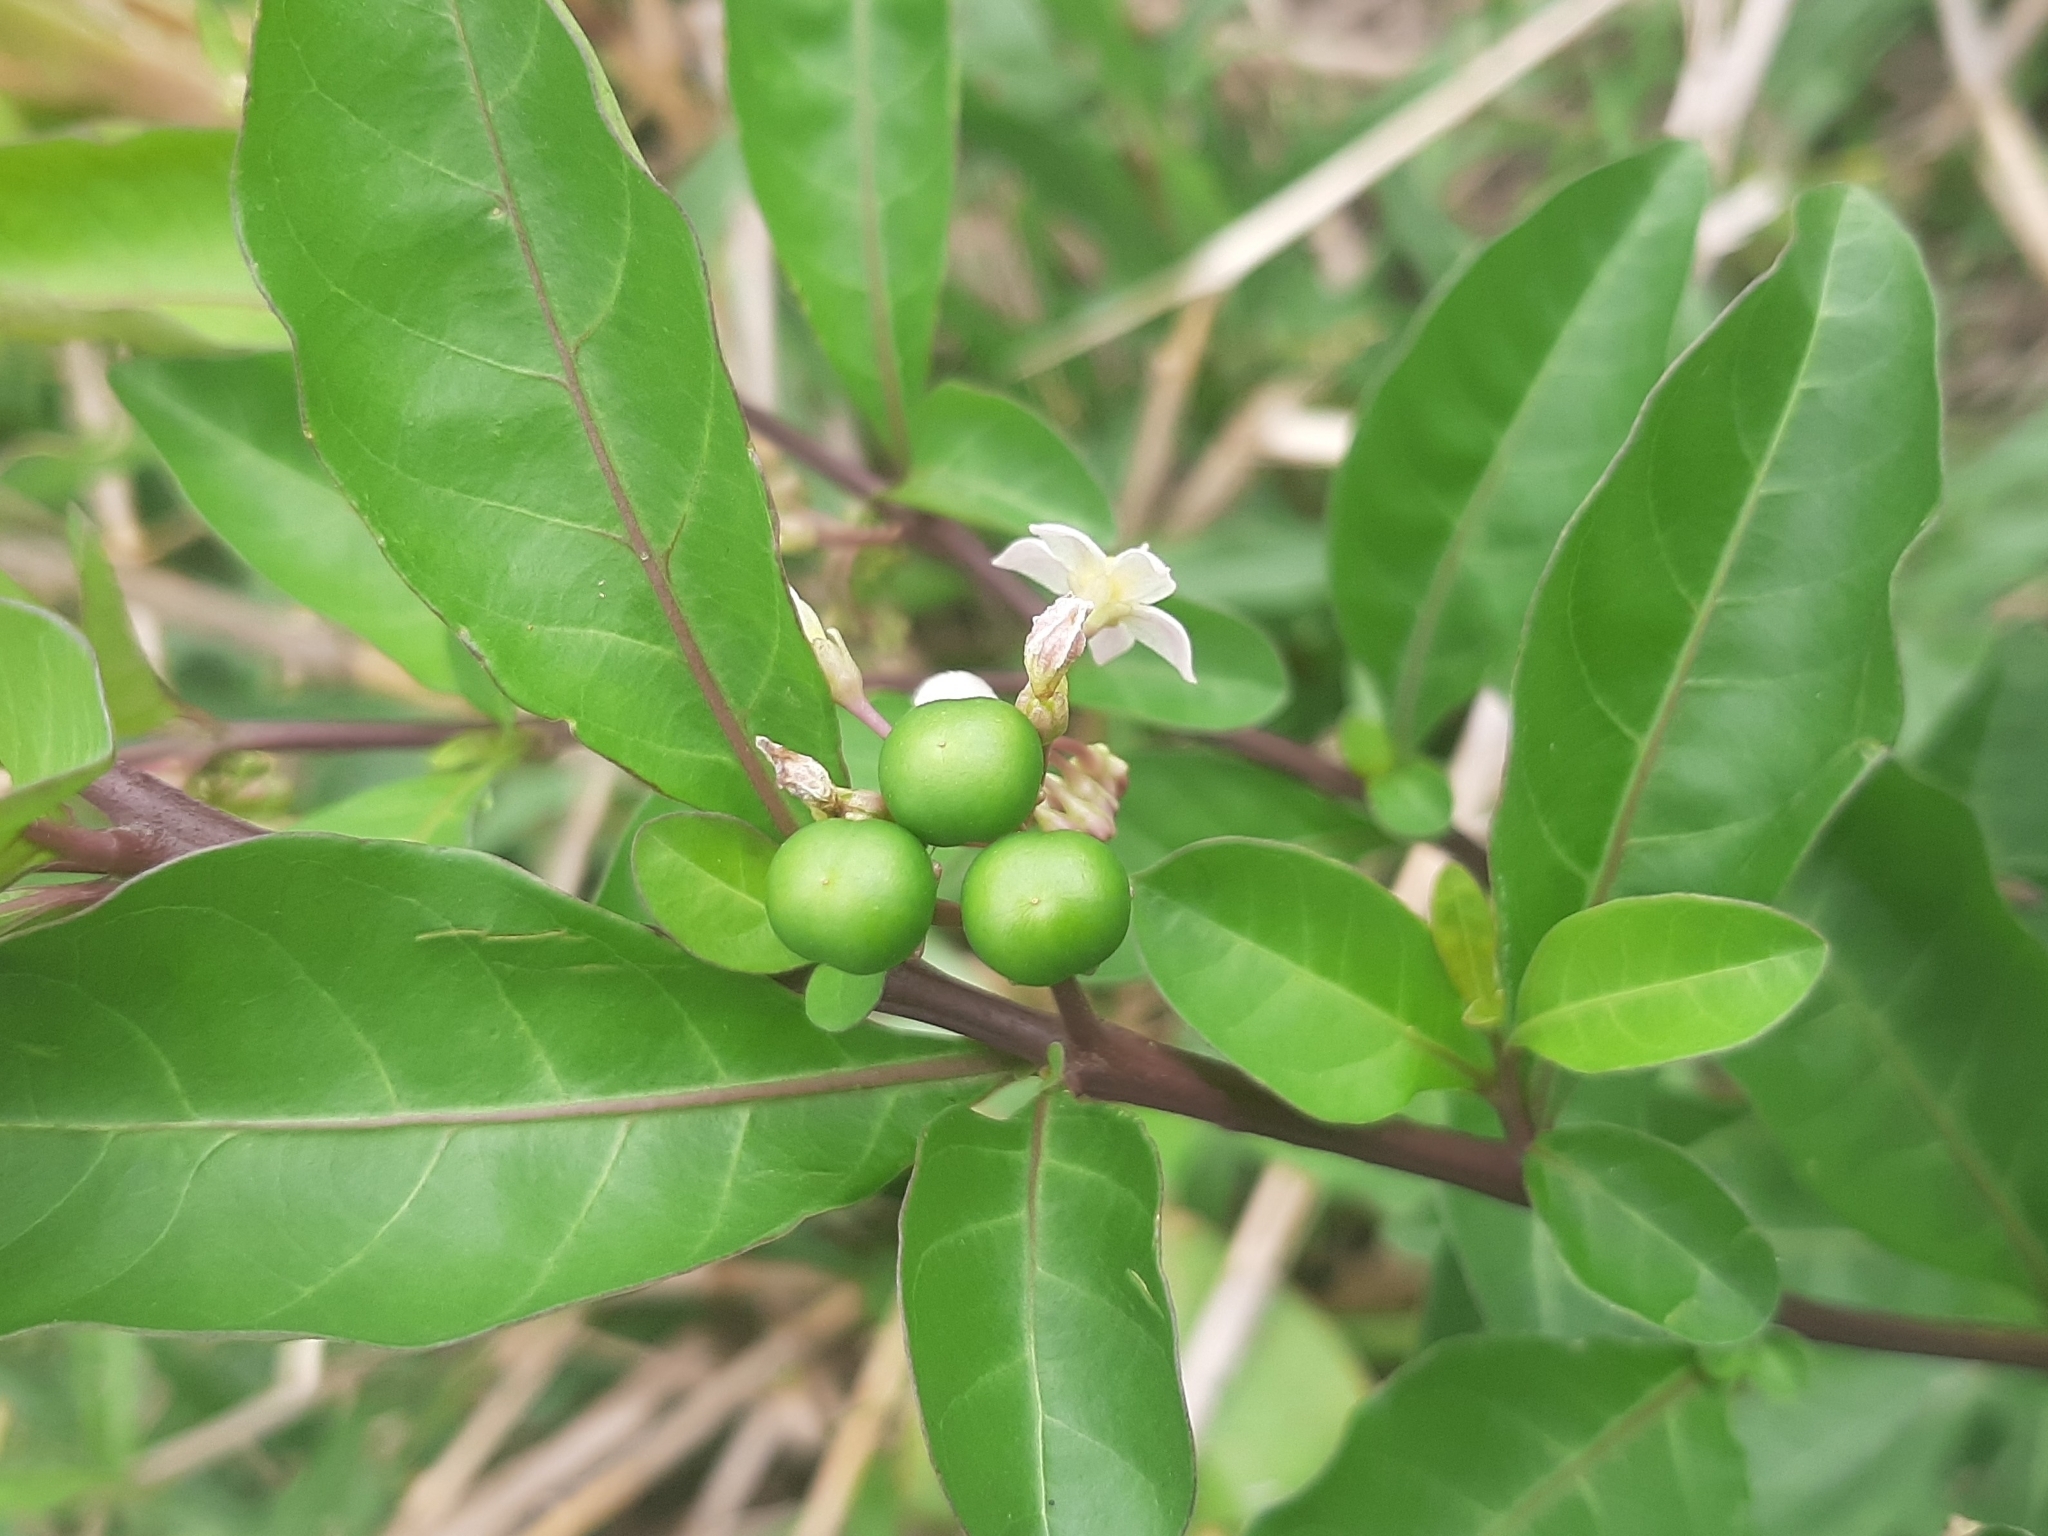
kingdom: Plantae
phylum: Tracheophyta
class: Magnoliopsida
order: Solanales
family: Solanaceae
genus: Solanum
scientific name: Solanum diphyllum
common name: Twoleaf nightshade
